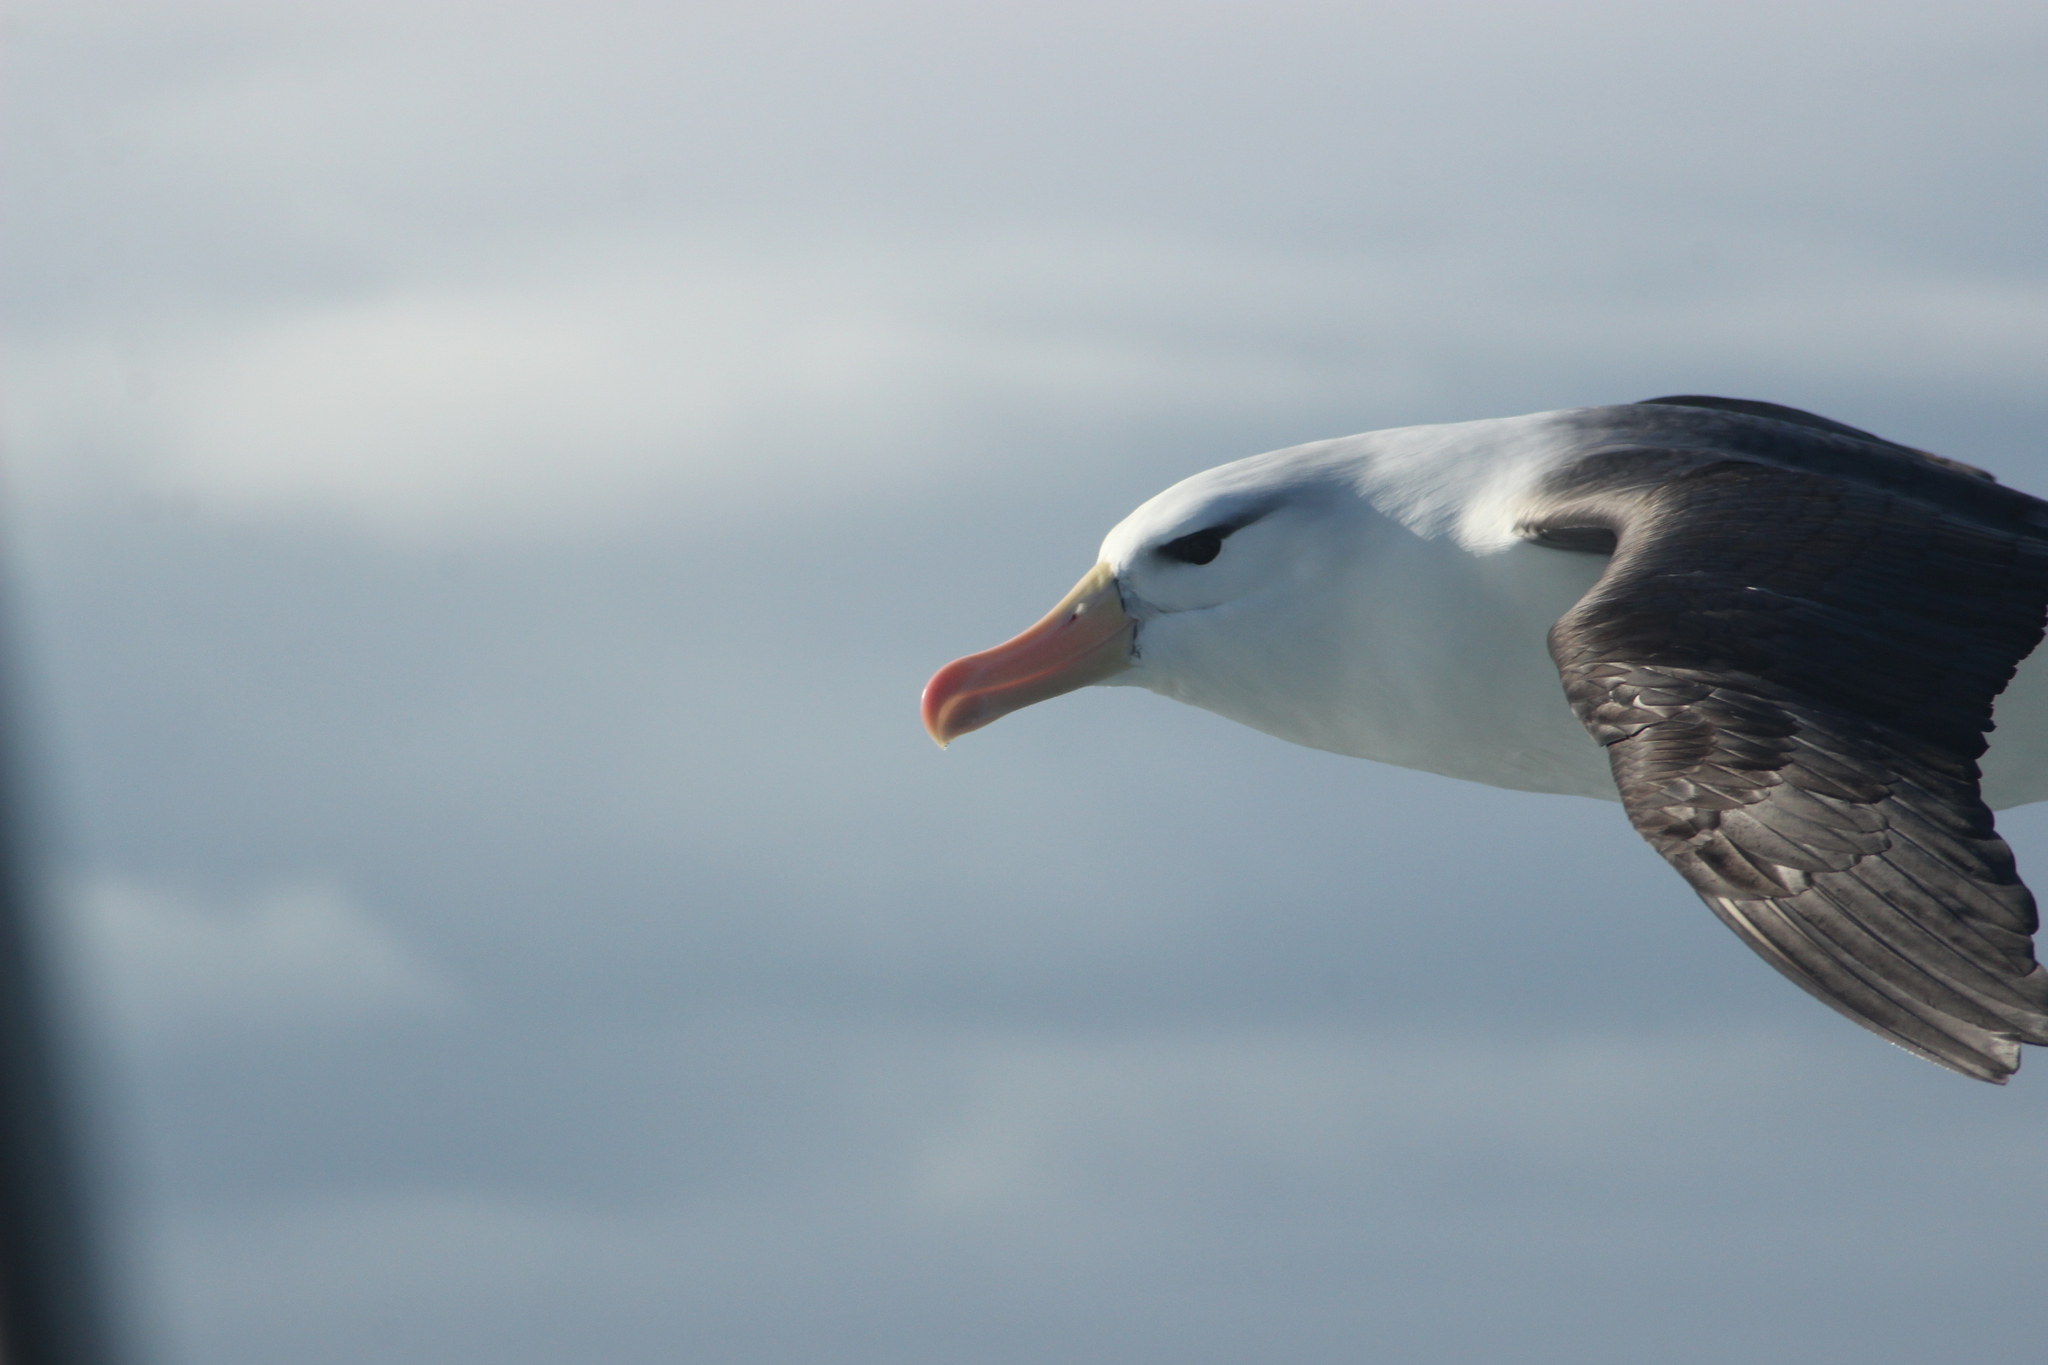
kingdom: Animalia
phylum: Chordata
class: Aves
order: Procellariiformes
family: Diomedeidae
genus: Thalassarche
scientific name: Thalassarche melanophris
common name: Black-browed albatross
